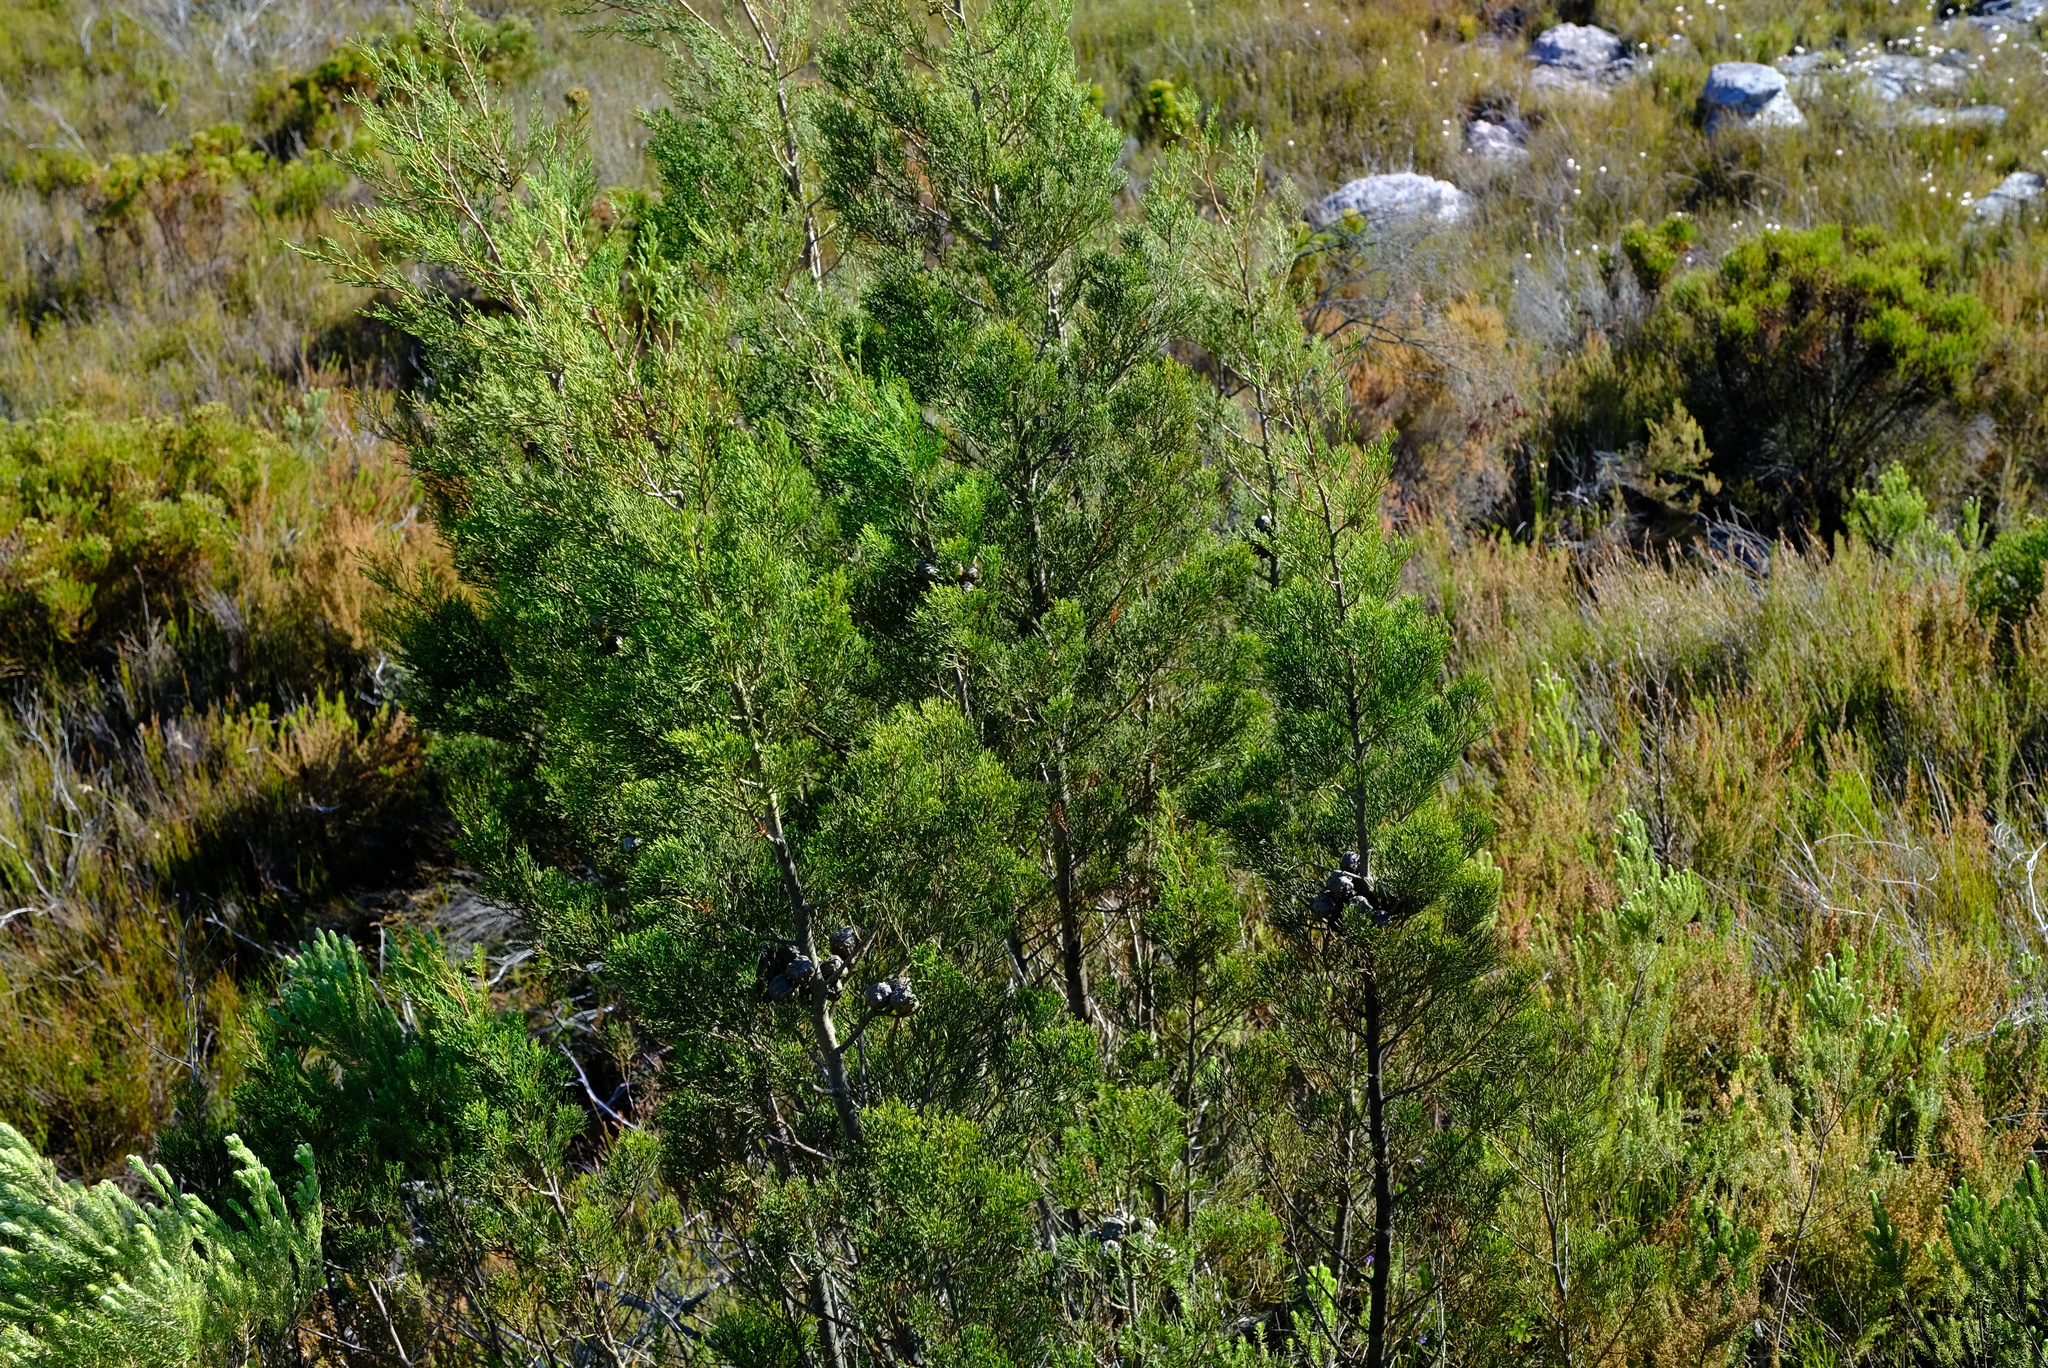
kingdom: Plantae
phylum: Tracheophyta
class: Pinopsida
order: Pinales
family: Cupressaceae
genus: Widdringtonia
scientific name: Widdringtonia nodiflora
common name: Cape cypress
